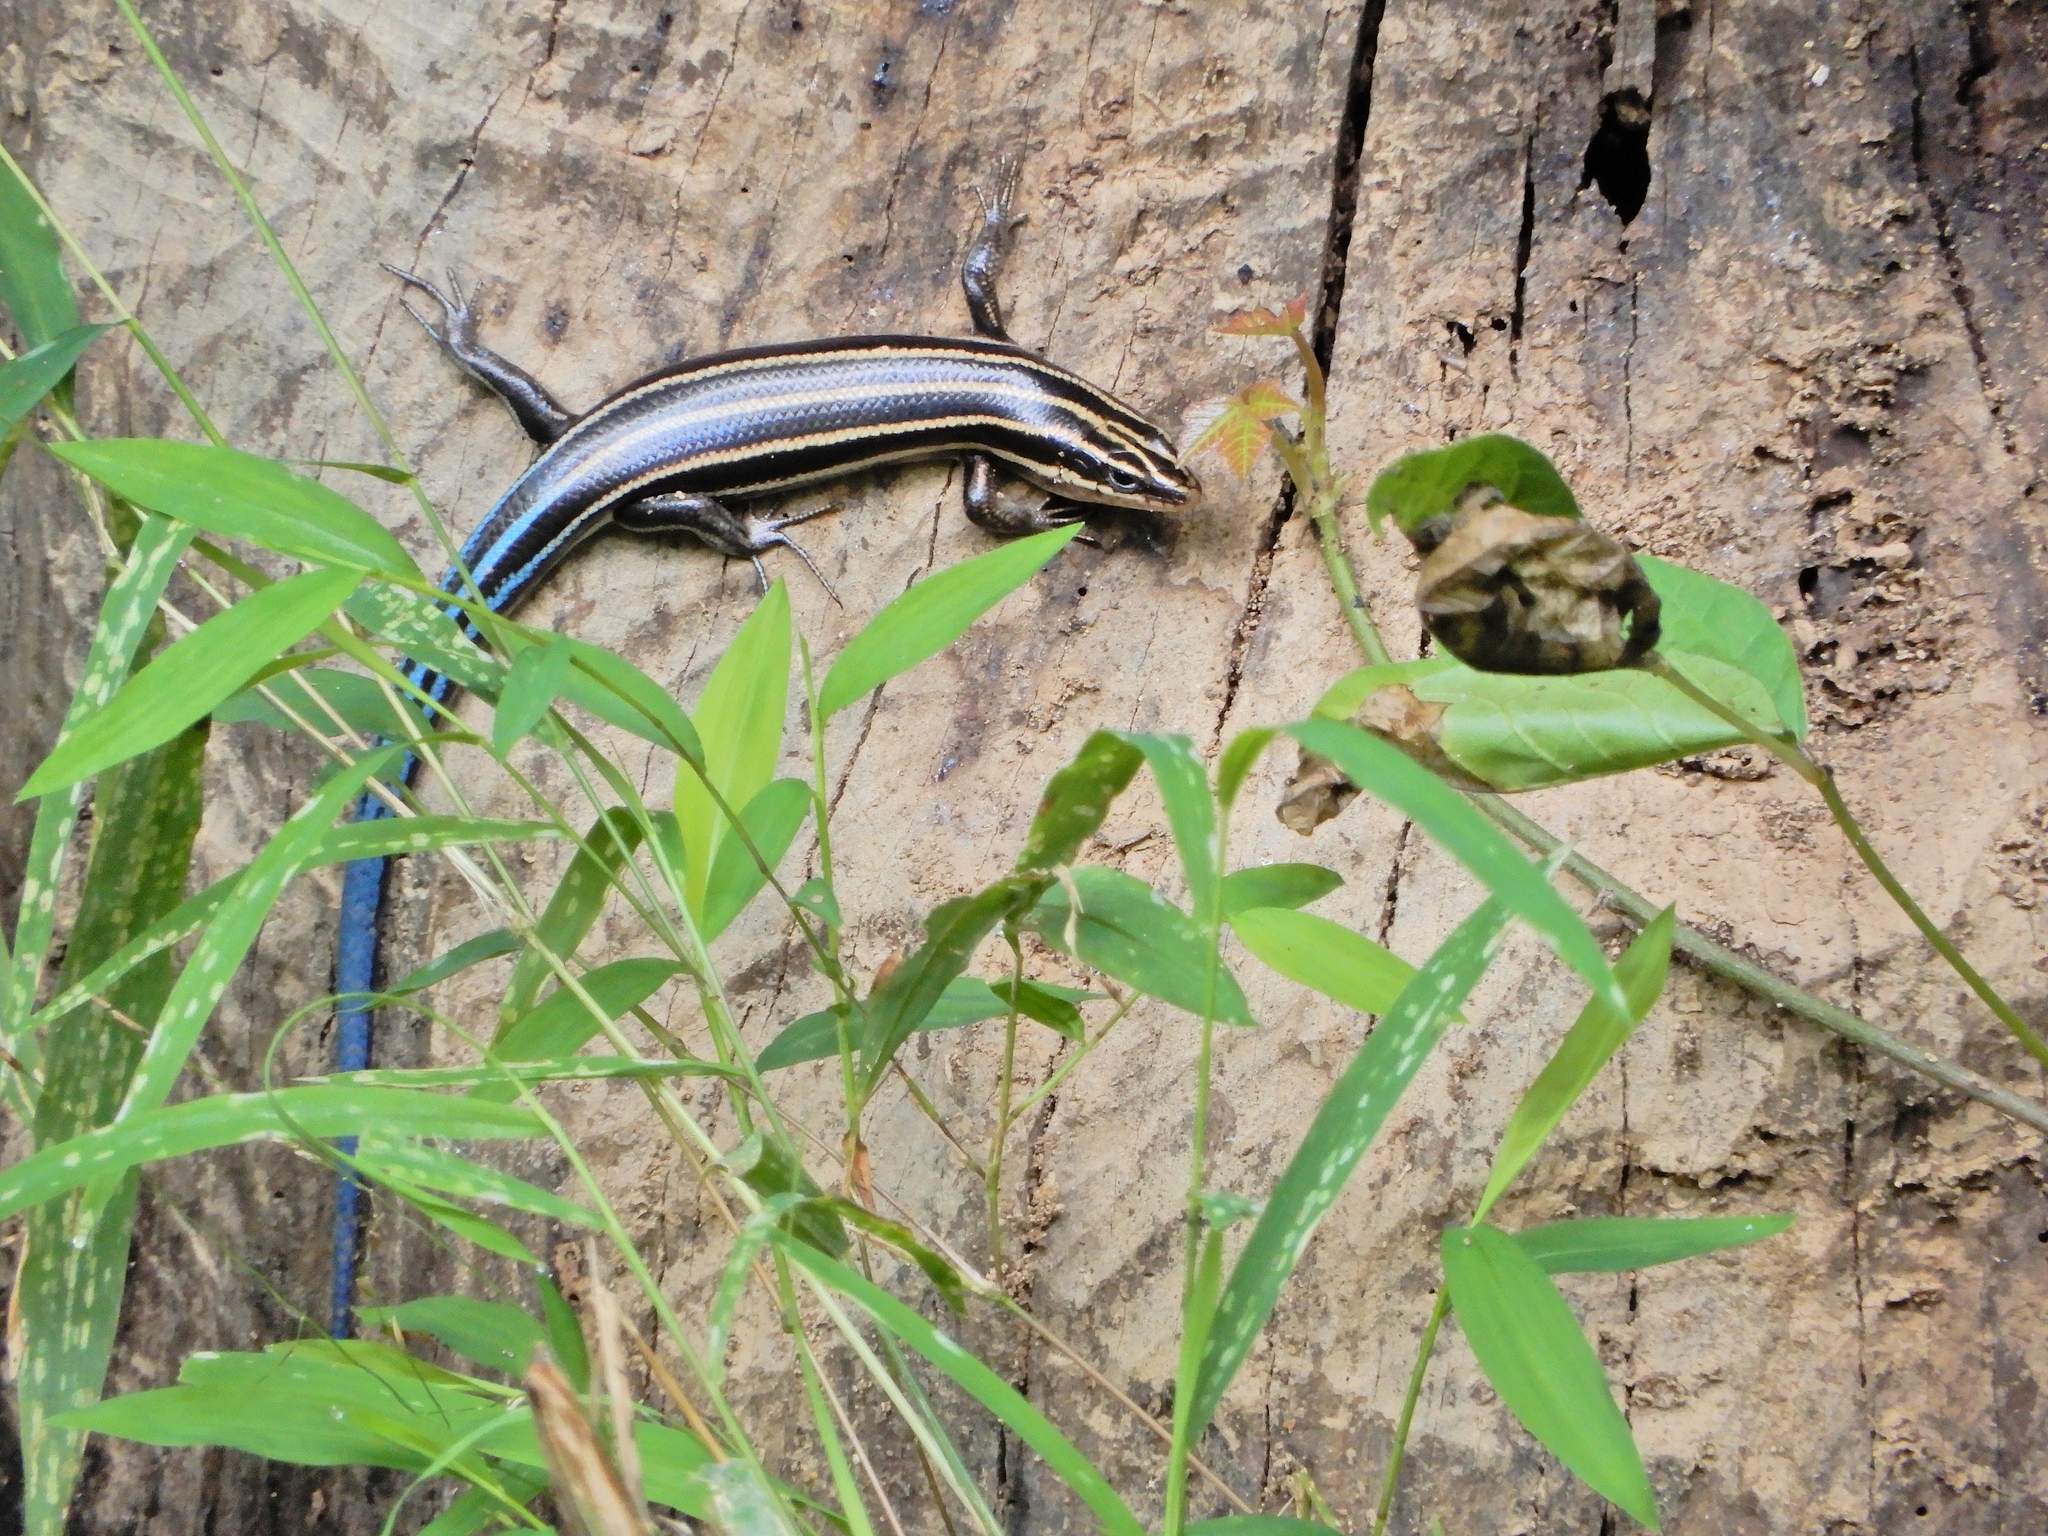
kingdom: Animalia
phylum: Chordata
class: Squamata
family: Scincidae
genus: Plestiodon
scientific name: Plestiodon fasciatus
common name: Five-lined skink
